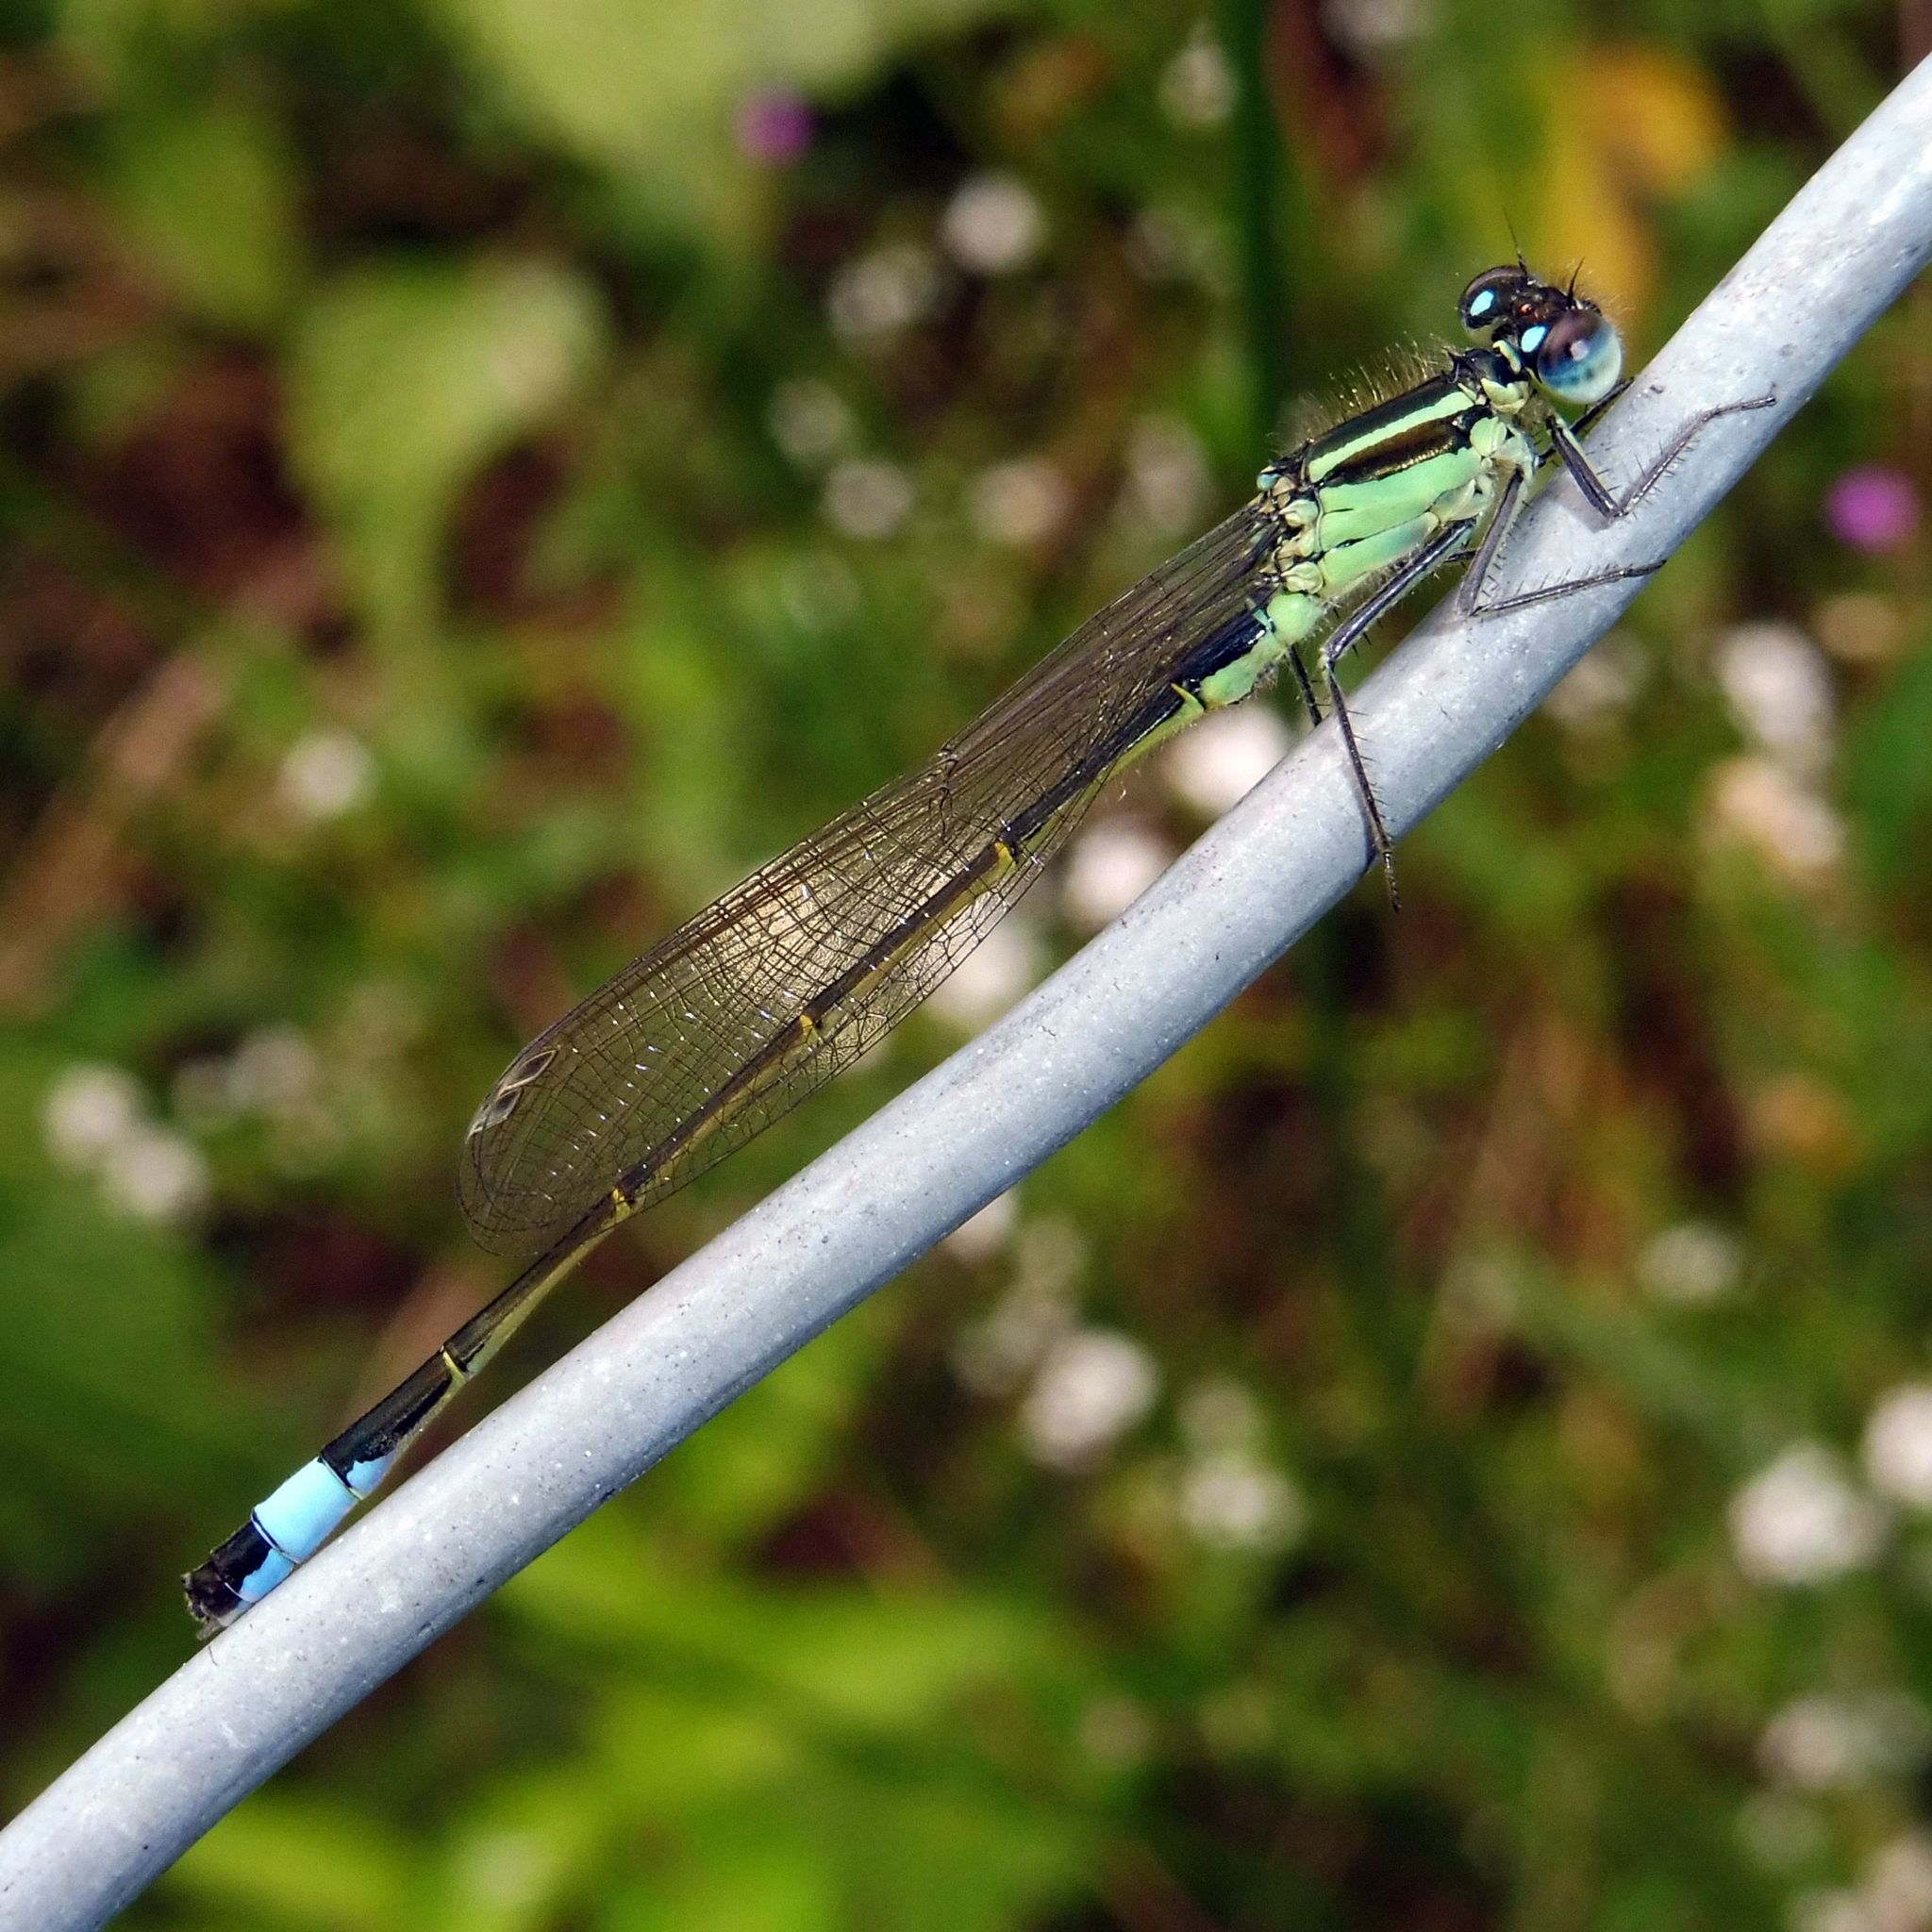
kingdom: Animalia
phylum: Arthropoda
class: Insecta
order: Odonata
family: Coenagrionidae
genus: Ischnura
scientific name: Ischnura elegans
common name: Blue-tailed damselfly
